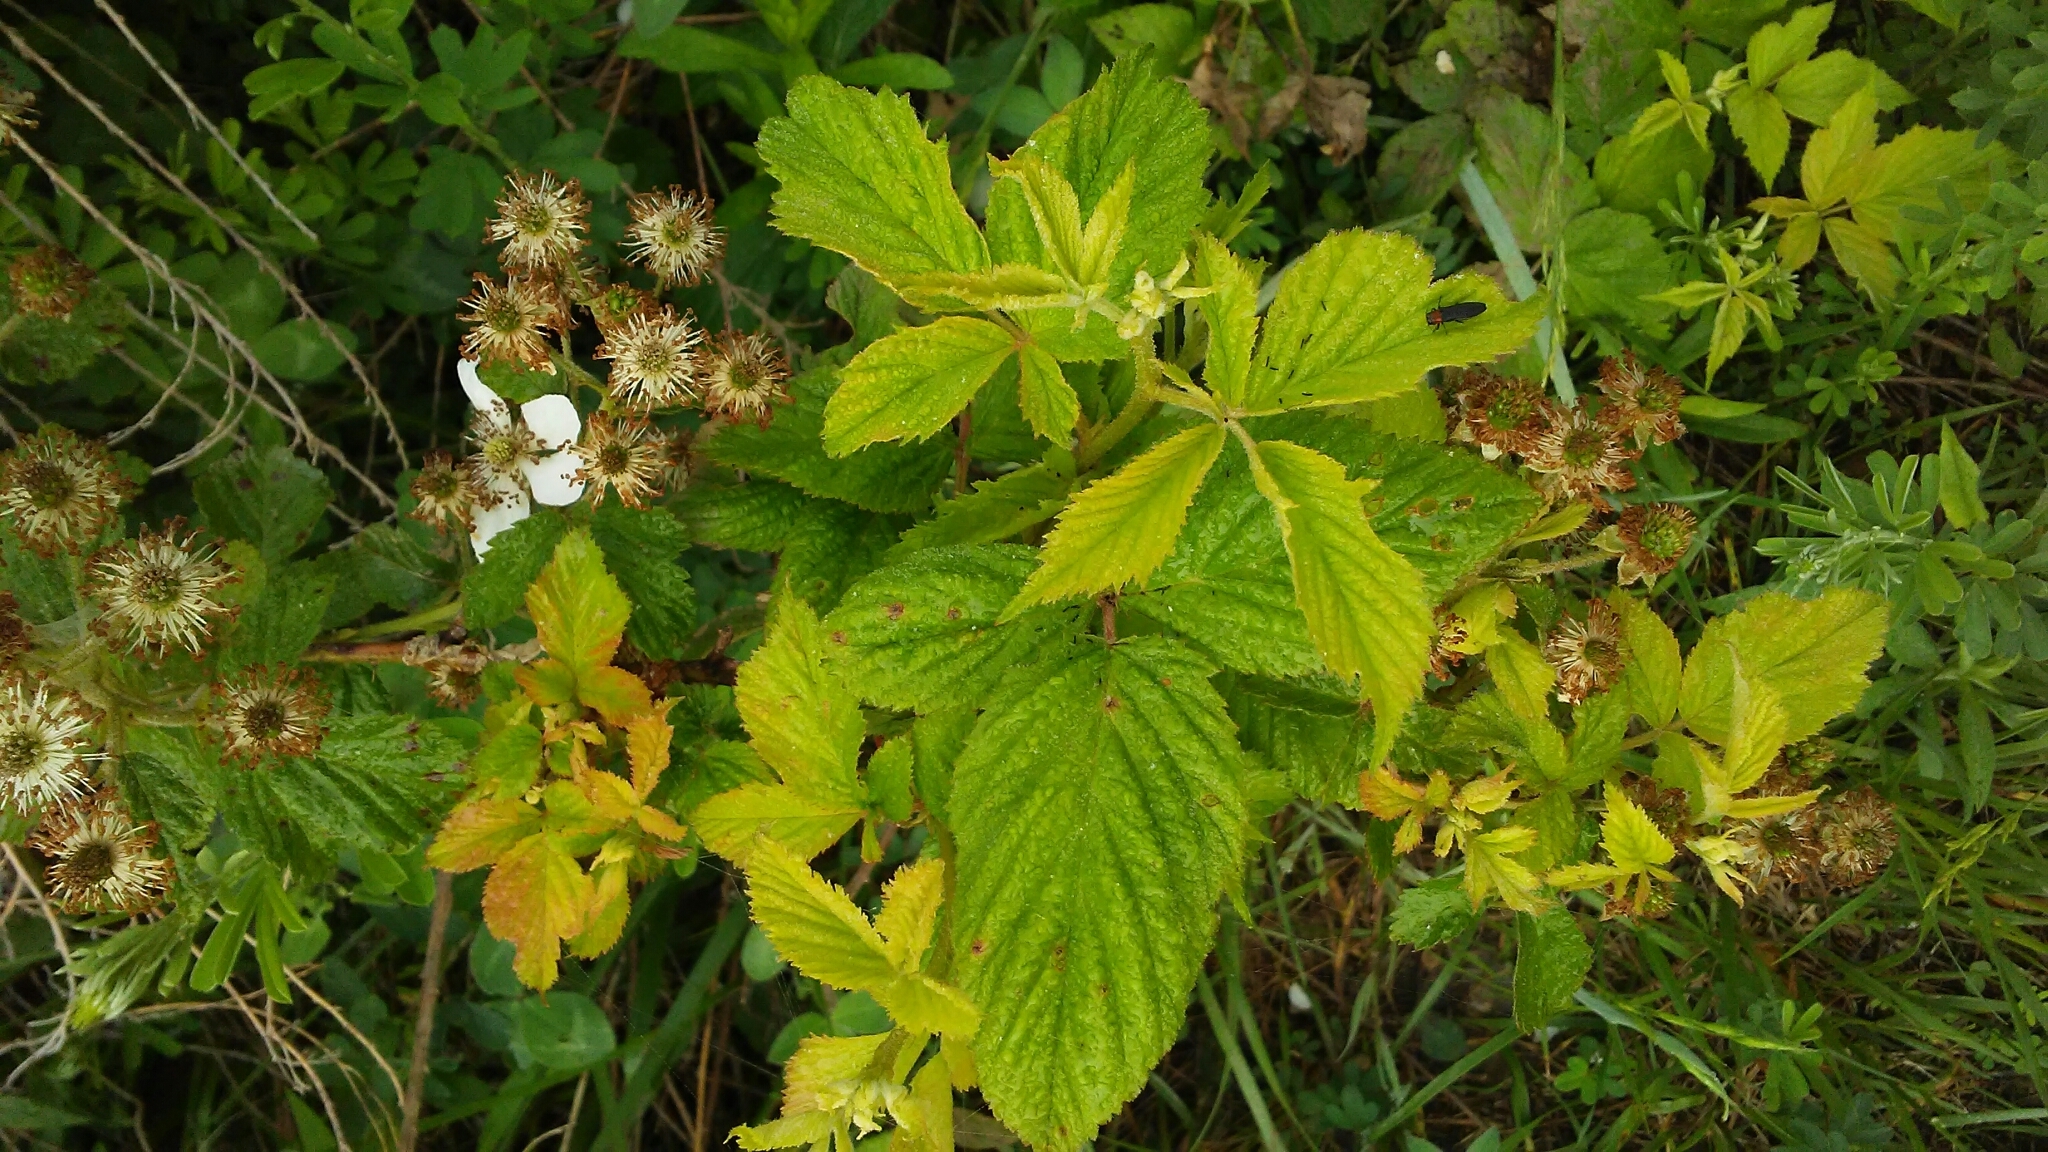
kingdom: Plantae
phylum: Tracheophyta
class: Magnoliopsida
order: Rosales
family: Rosaceae
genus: Rubus
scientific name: Rubus allegheniensis
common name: Allegheny blackberry
